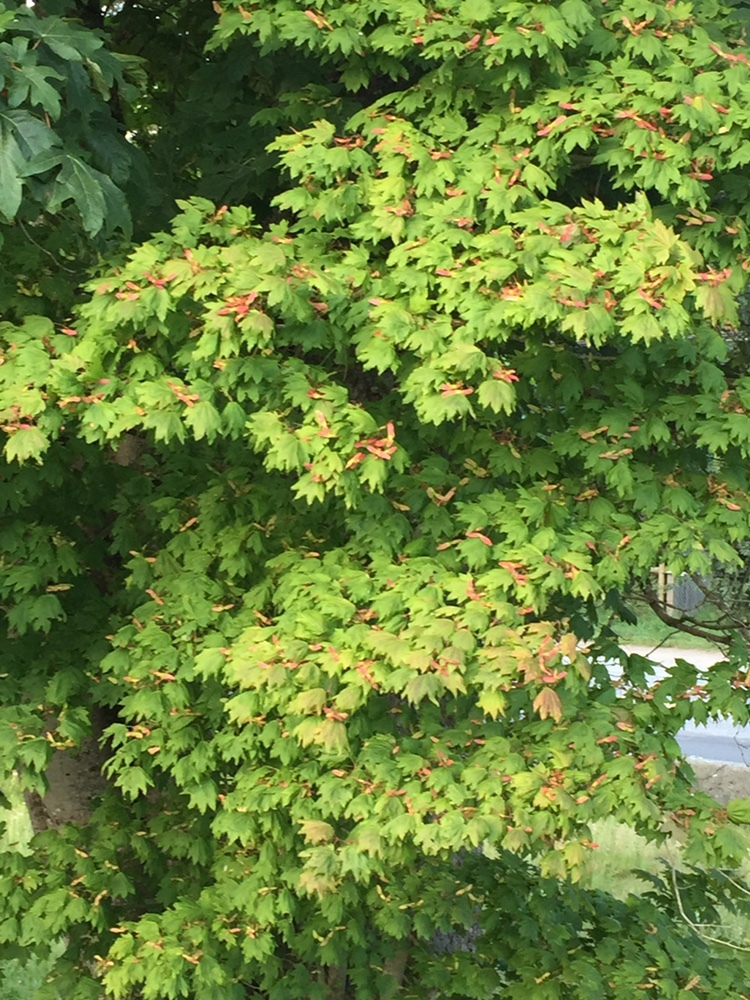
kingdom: Plantae
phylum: Tracheophyta
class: Magnoliopsida
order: Sapindales
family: Sapindaceae
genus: Acer
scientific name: Acer circinatum
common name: Vine maple
